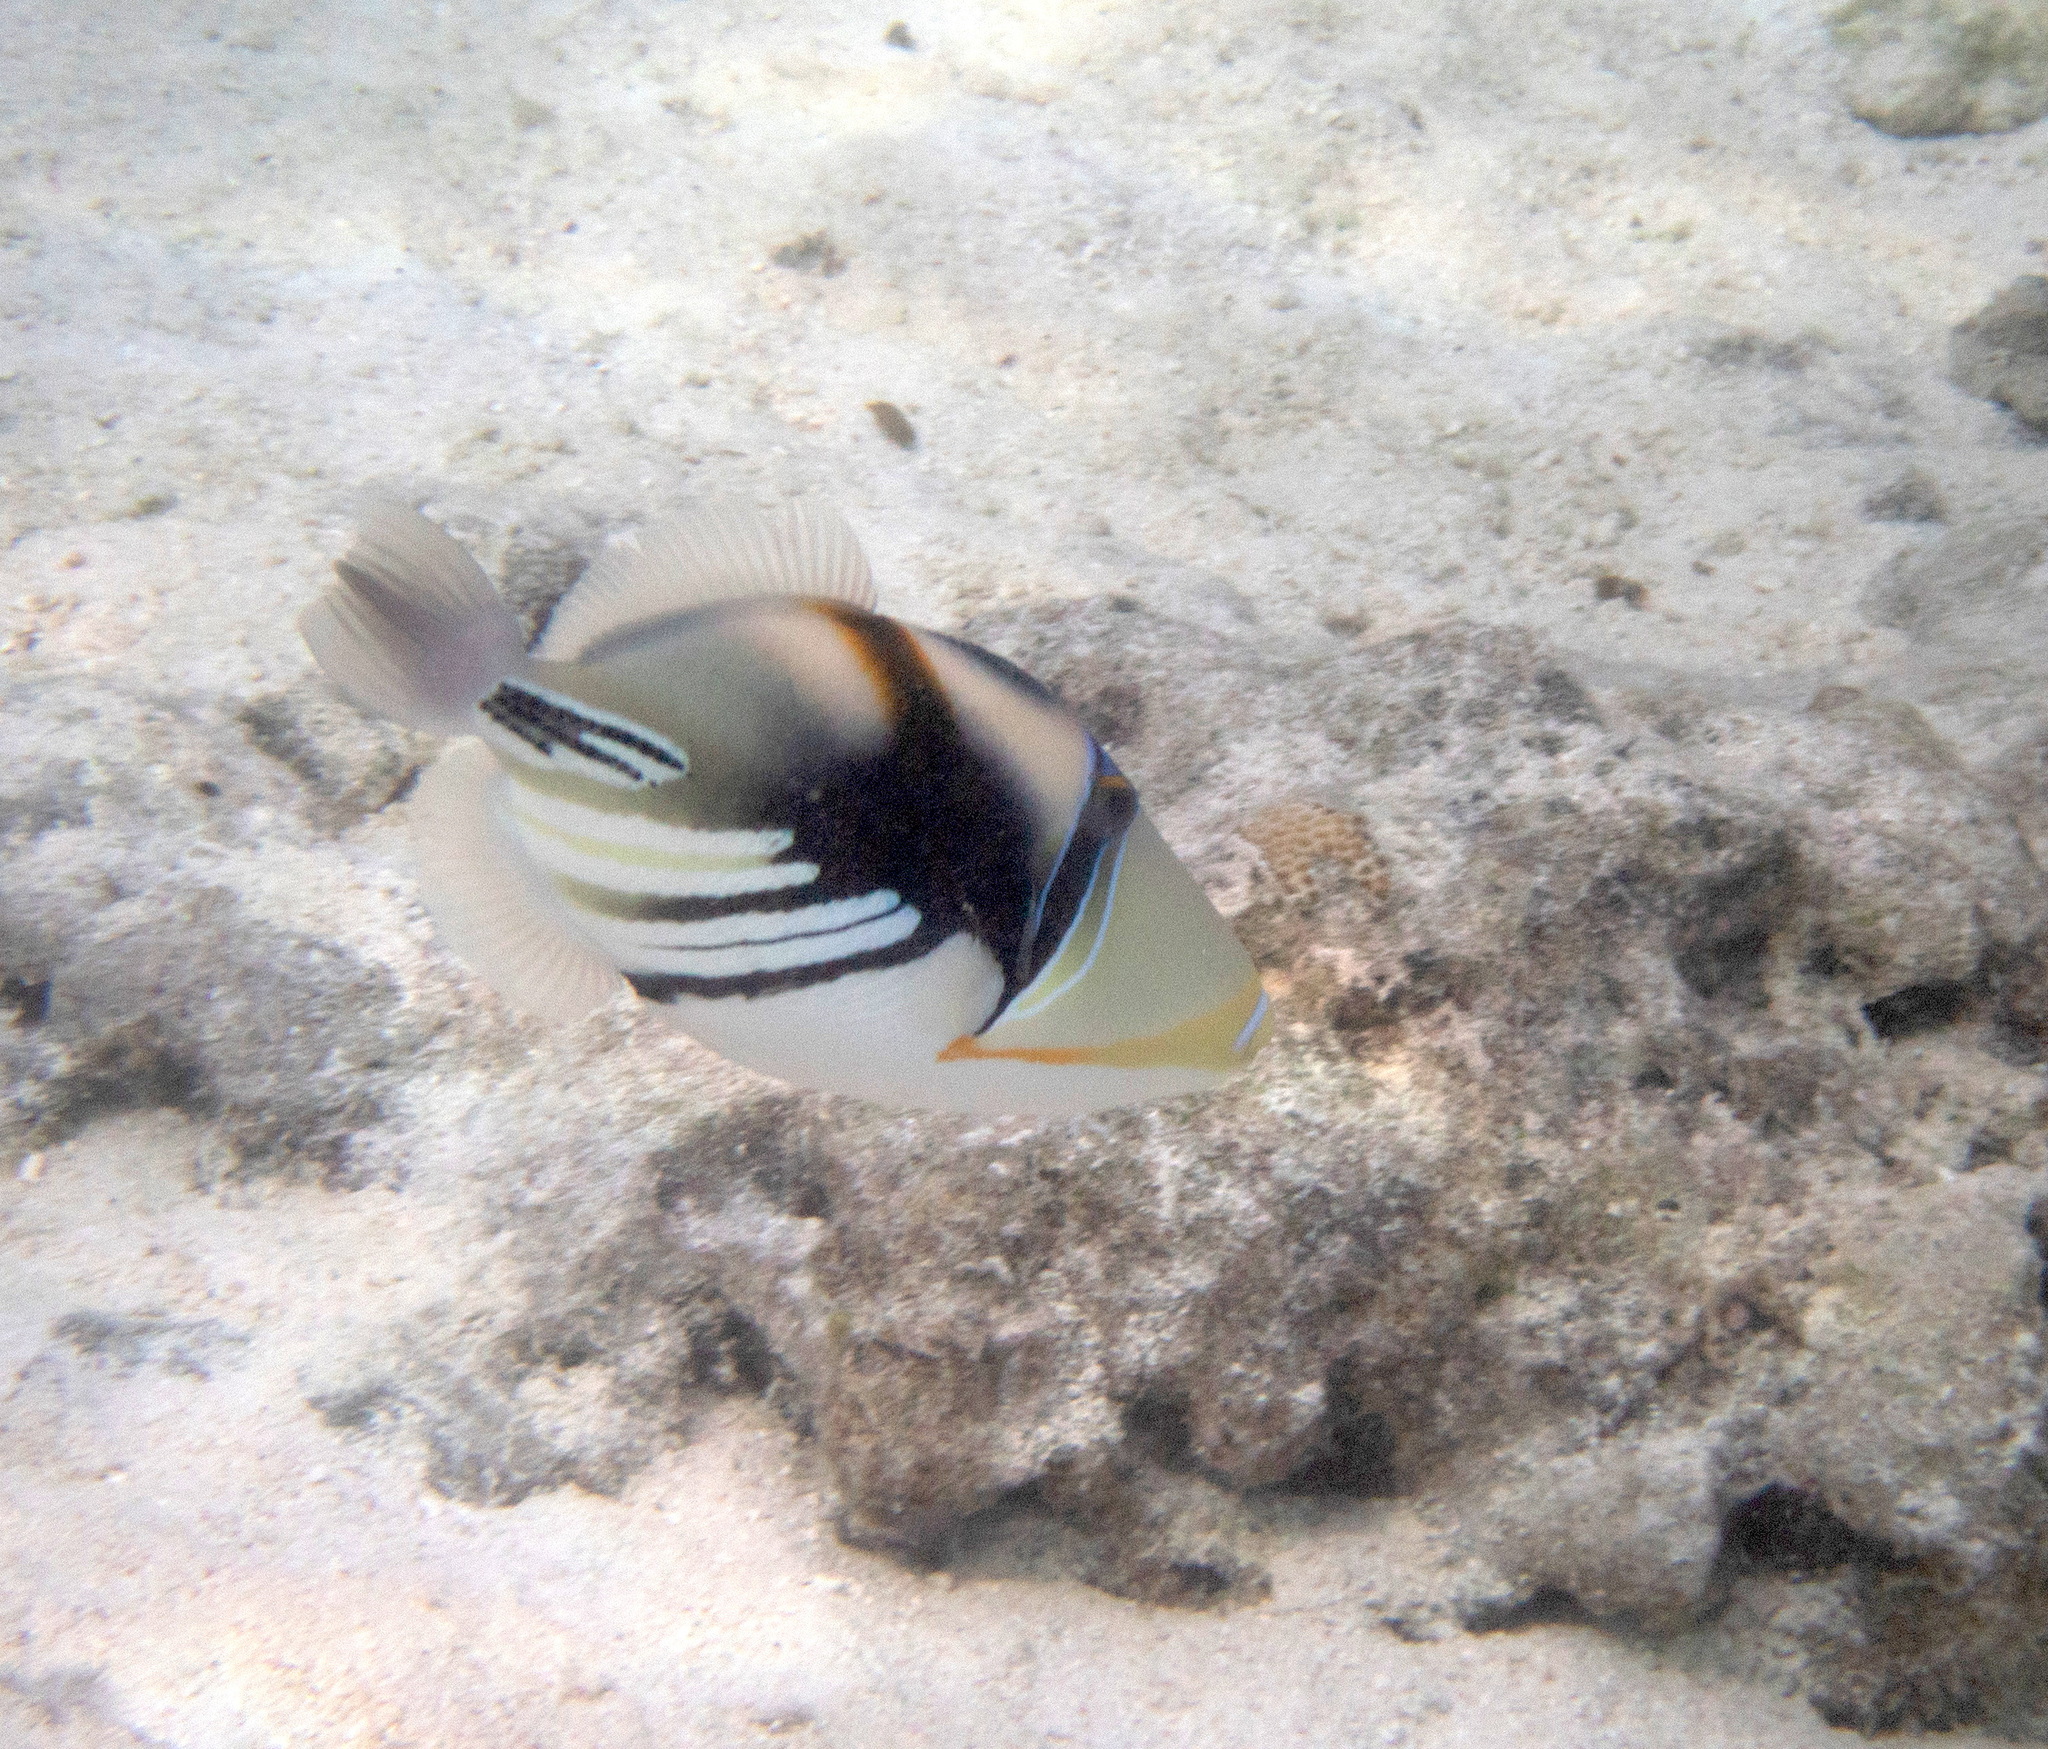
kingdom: Animalia
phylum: Chordata
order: Tetraodontiformes
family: Balistidae
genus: Rhinecanthus
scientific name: Rhinecanthus aculeatus
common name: White-banded triggerfish
